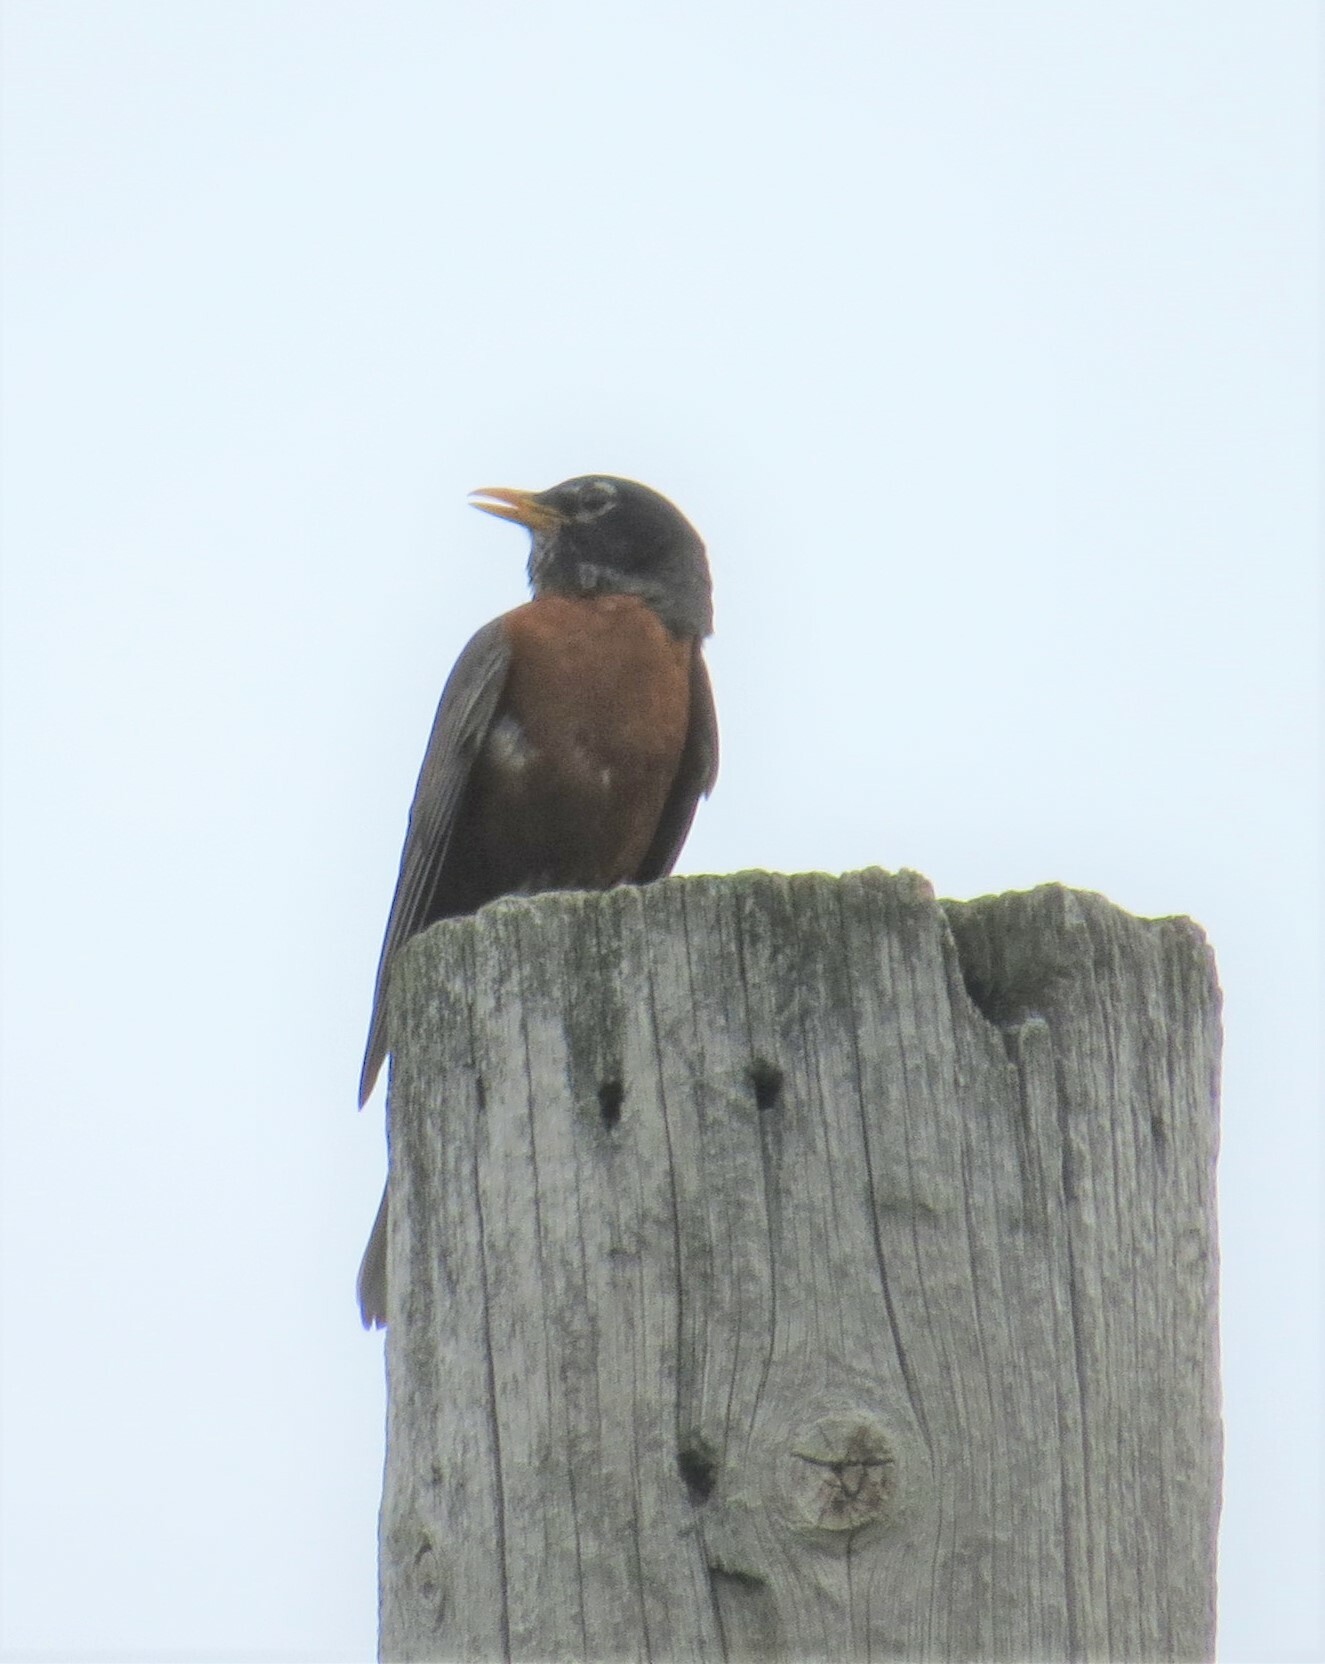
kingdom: Animalia
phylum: Chordata
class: Aves
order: Passeriformes
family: Turdidae
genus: Turdus
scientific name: Turdus migratorius
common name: American robin
